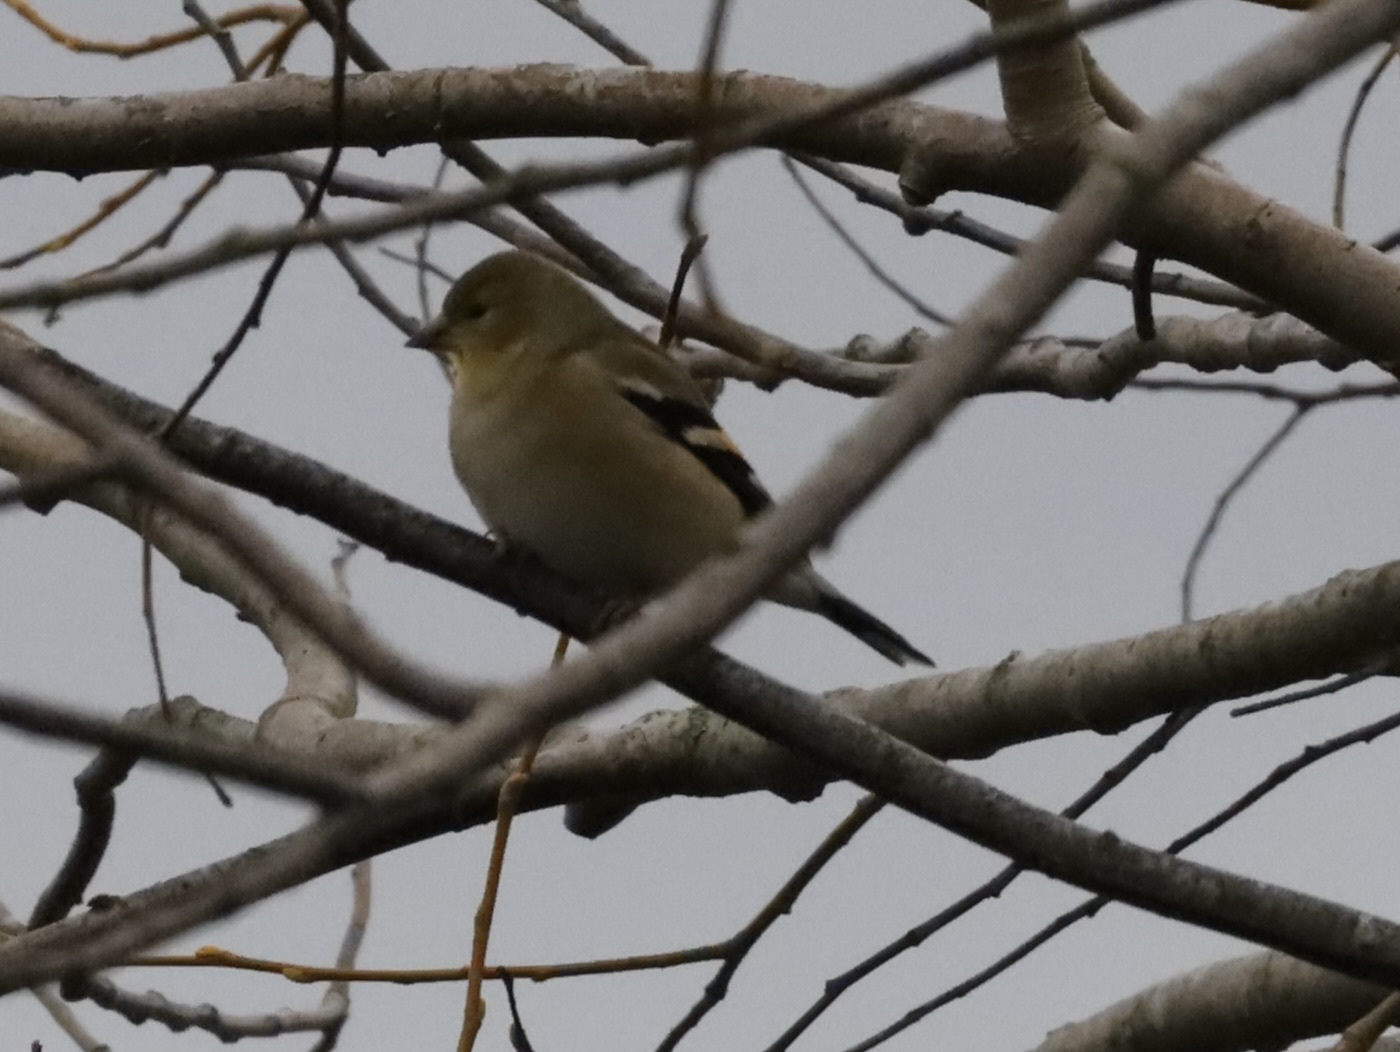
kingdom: Animalia
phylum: Chordata
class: Aves
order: Passeriformes
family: Fringillidae
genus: Spinus
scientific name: Spinus tristis
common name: American goldfinch
